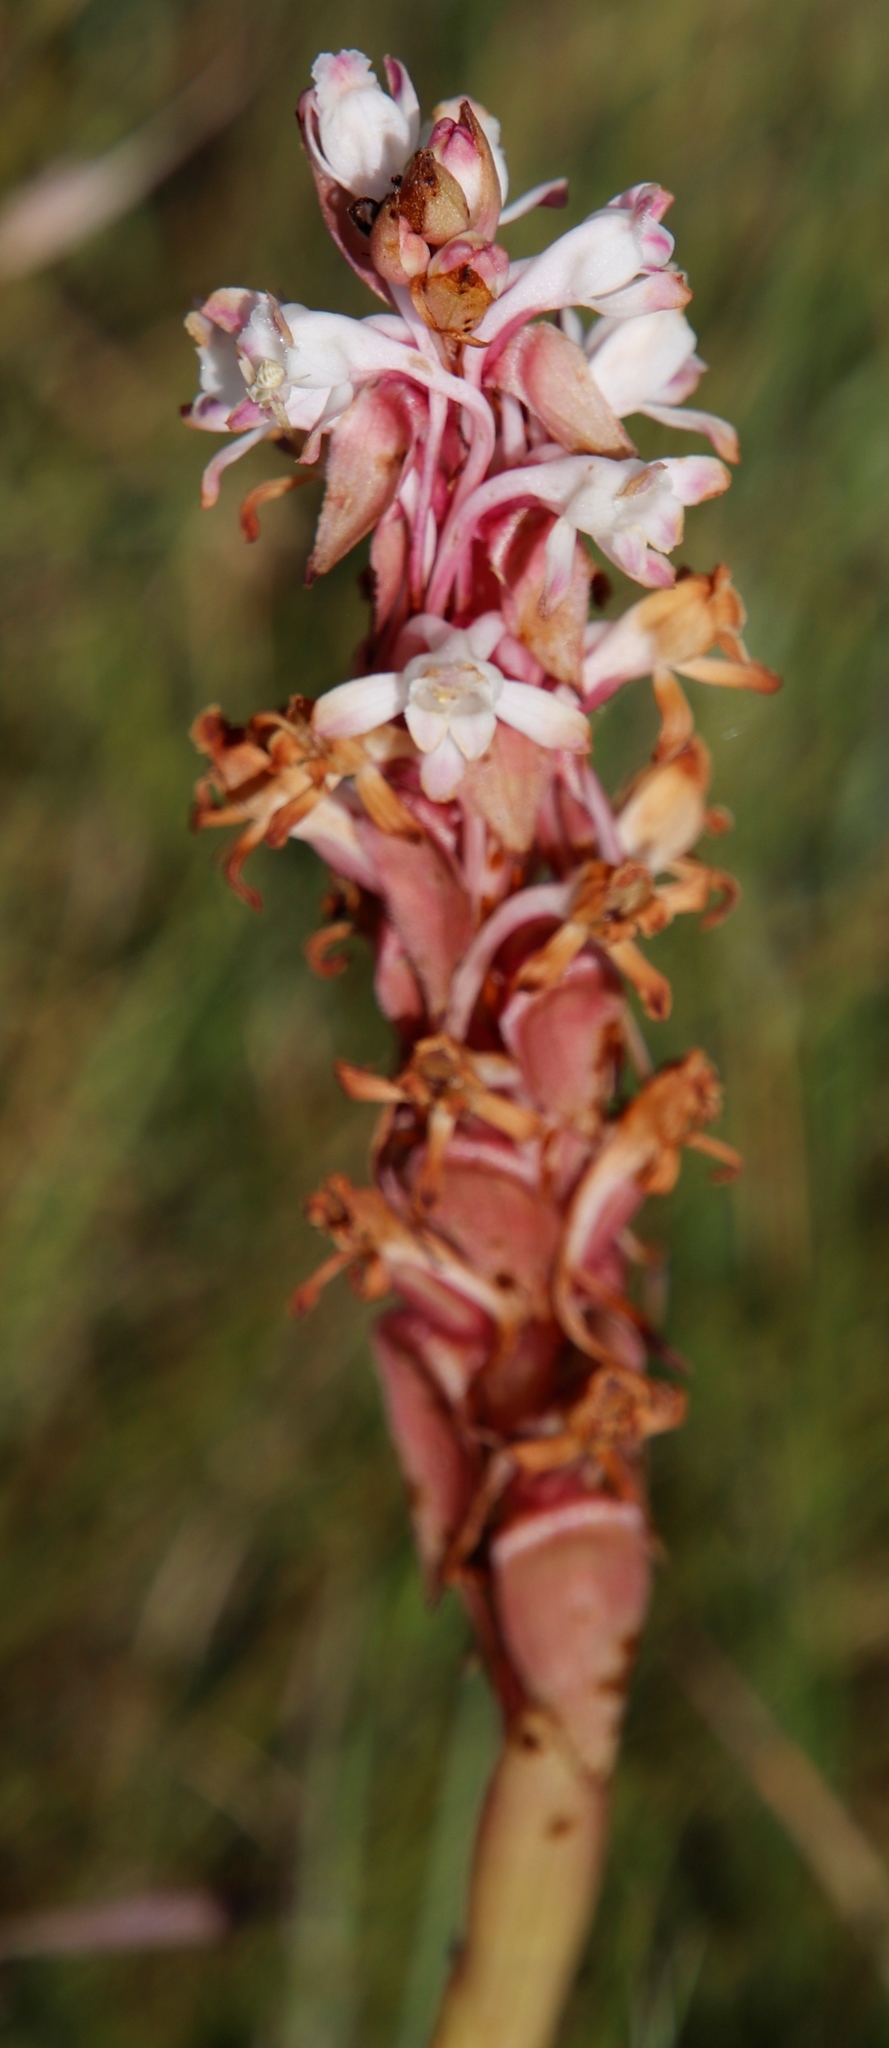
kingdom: Plantae
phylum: Tracheophyta
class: Liliopsida
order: Asparagales
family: Orchidaceae
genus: Satyrium
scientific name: Satyrium longicauda
